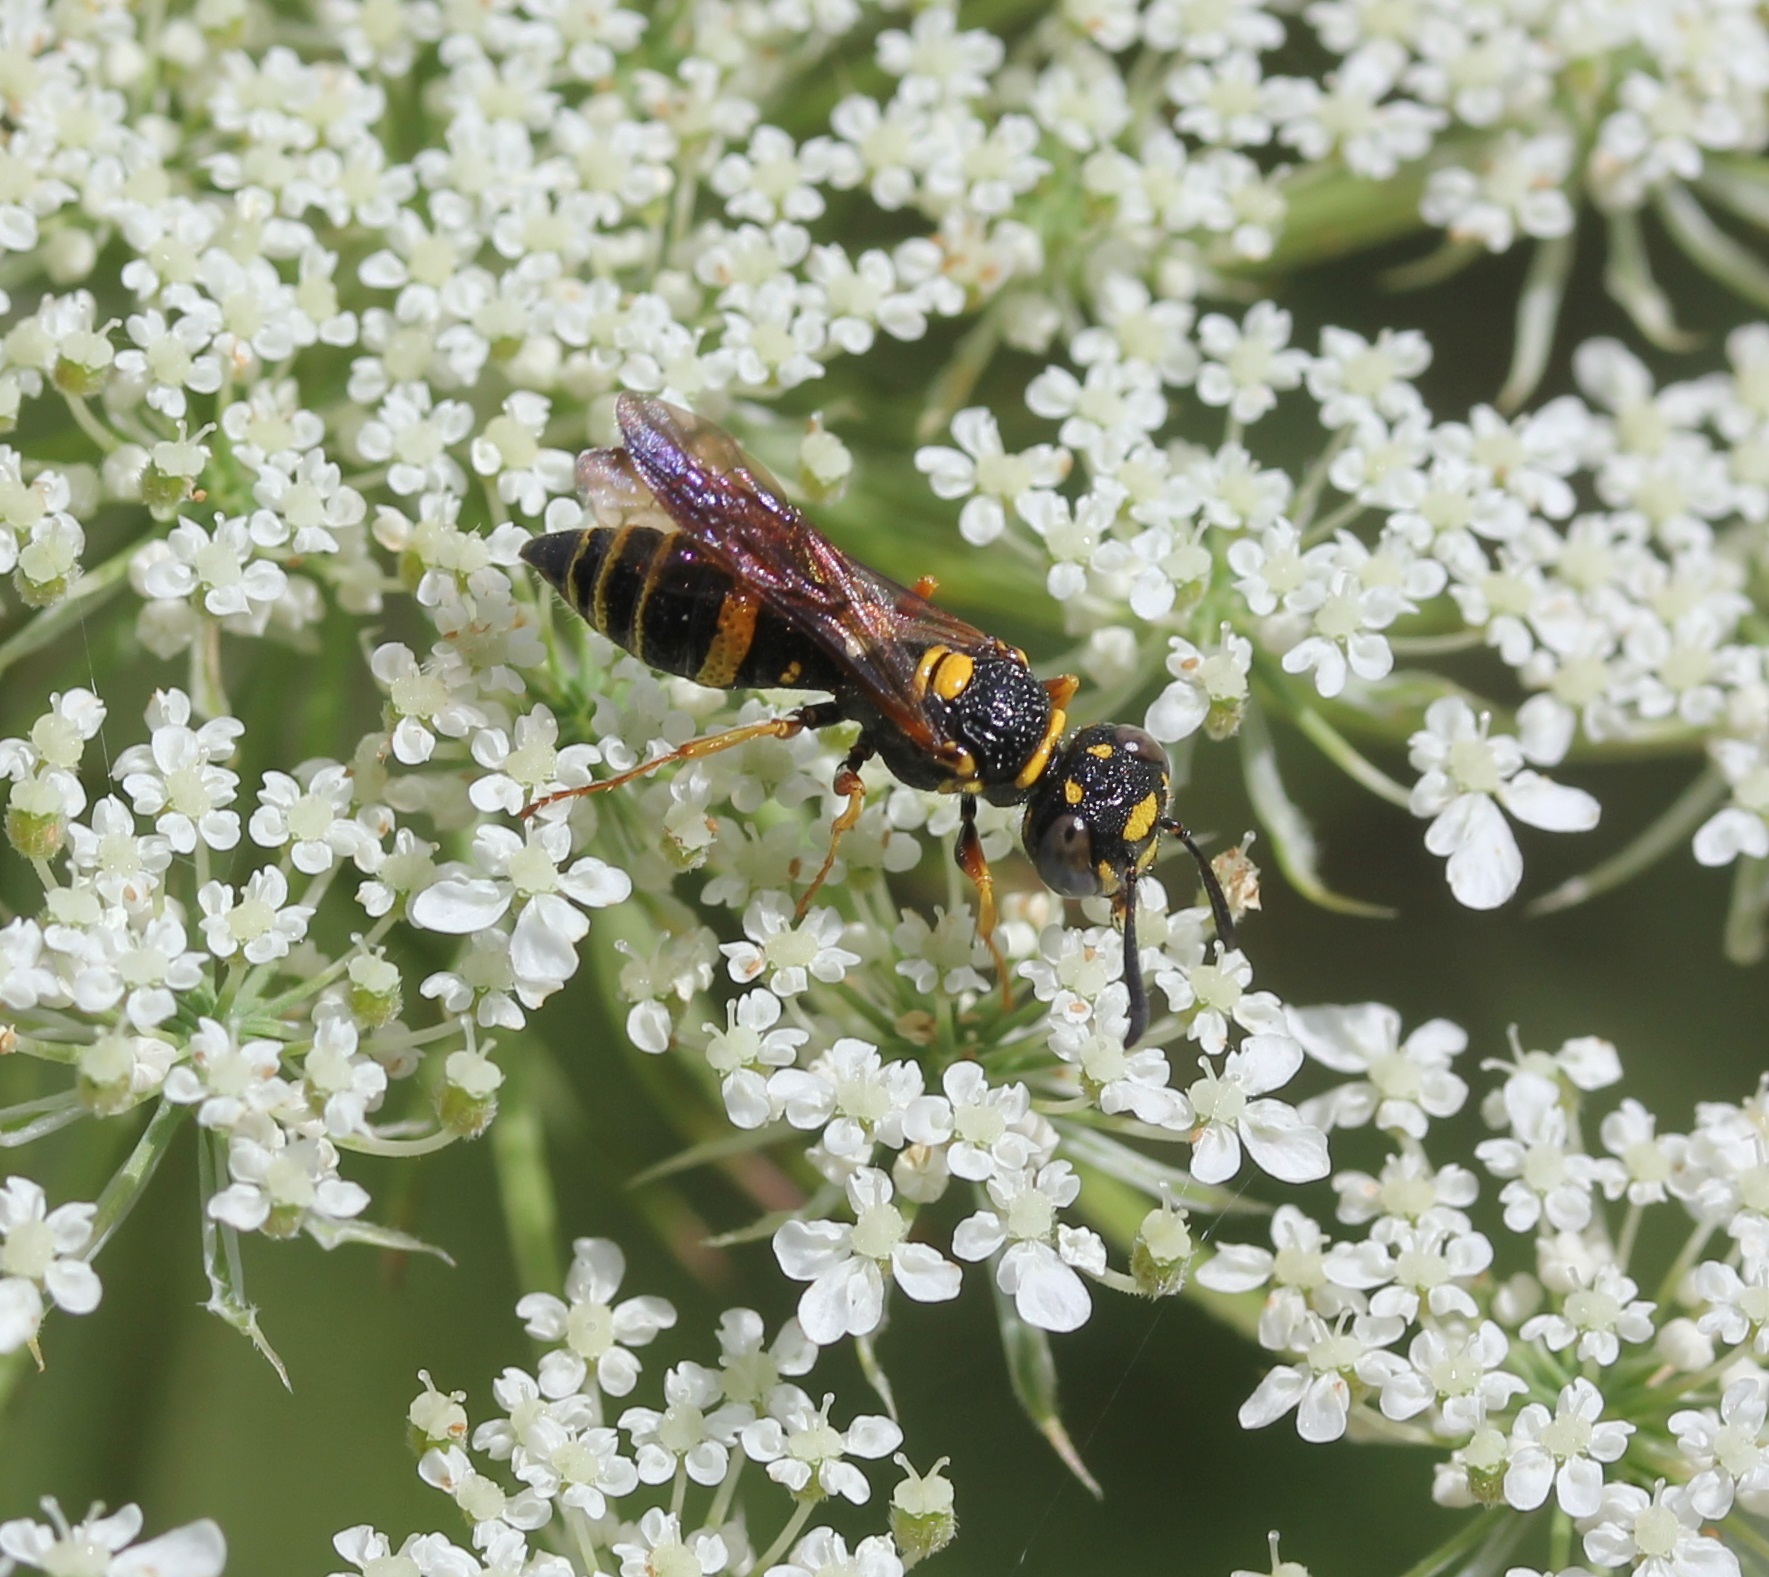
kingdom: Animalia
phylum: Arthropoda
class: Insecta
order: Hymenoptera
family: Crabronidae
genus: Philanthus
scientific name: Philanthus gibbosus
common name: Humped beewolf
